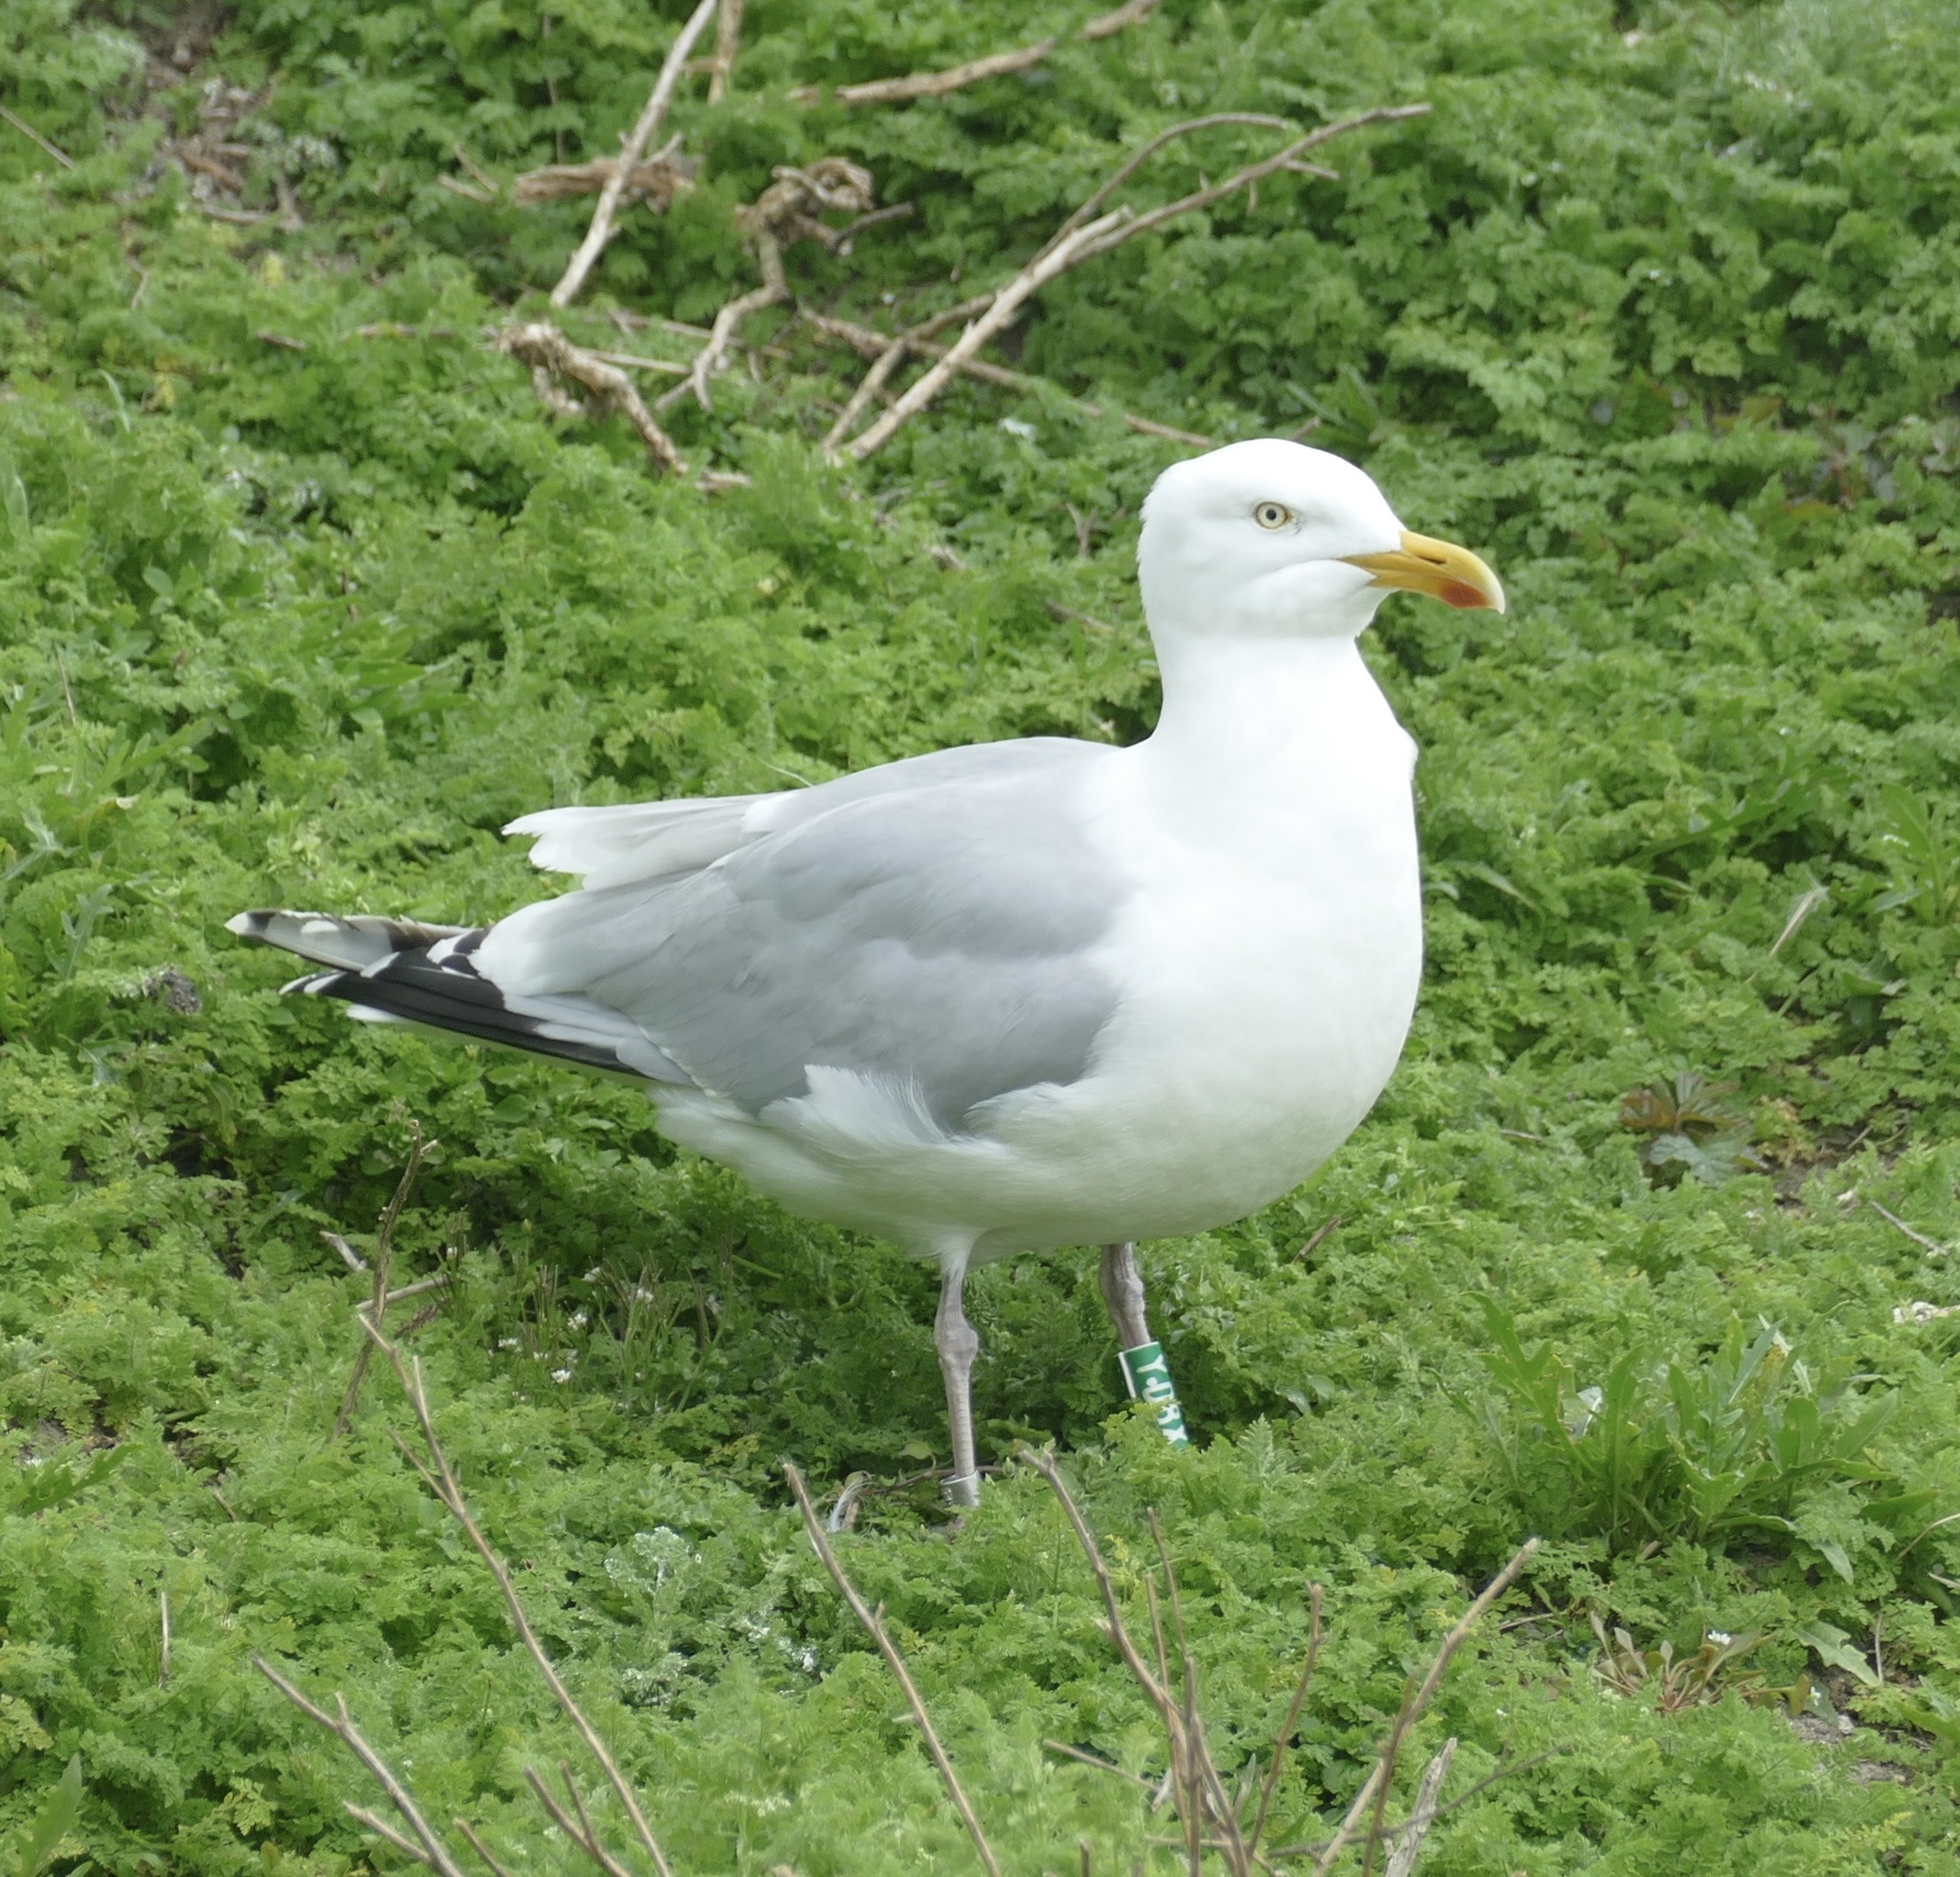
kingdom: Animalia
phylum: Chordata
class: Aves
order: Charadriiformes
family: Laridae
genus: Larus
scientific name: Larus argentatus
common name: Herring gull
